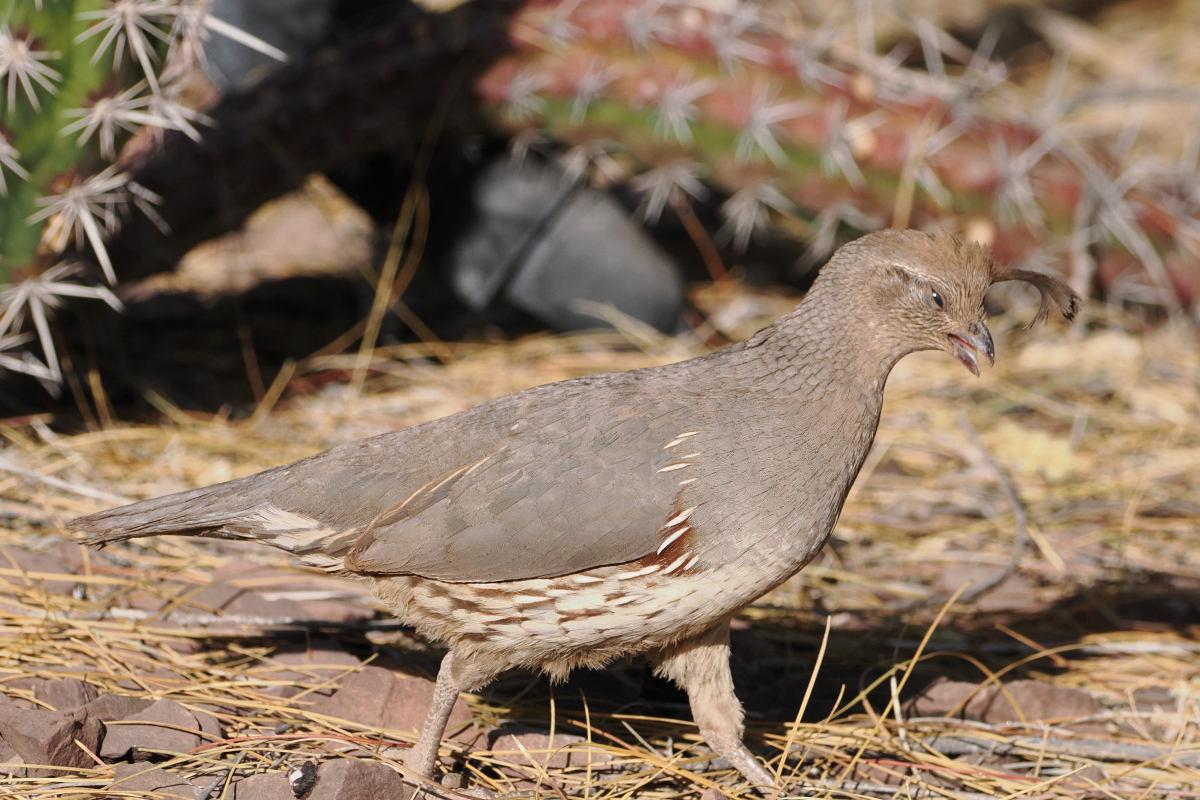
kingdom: Animalia
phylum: Chordata
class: Aves
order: Galliformes
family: Odontophoridae
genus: Callipepla
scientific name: Callipepla gambelii
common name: Gambel's quail
